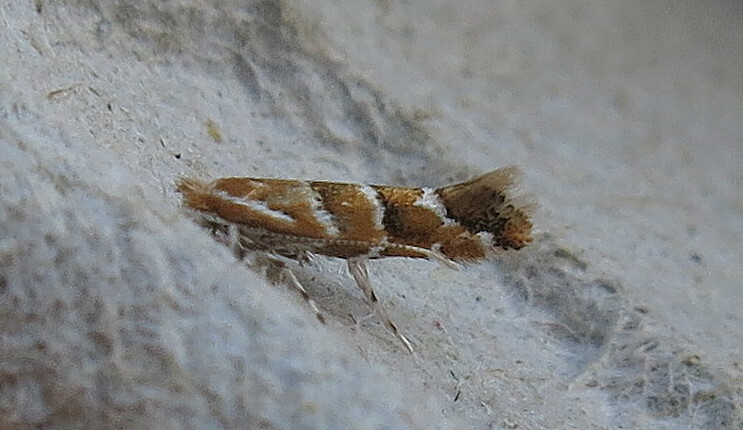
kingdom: Animalia
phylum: Arthropoda
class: Insecta
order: Lepidoptera
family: Gracillariidae
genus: Cameraria
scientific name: Cameraria ohridella
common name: Horse-chestnut leaf-miner
